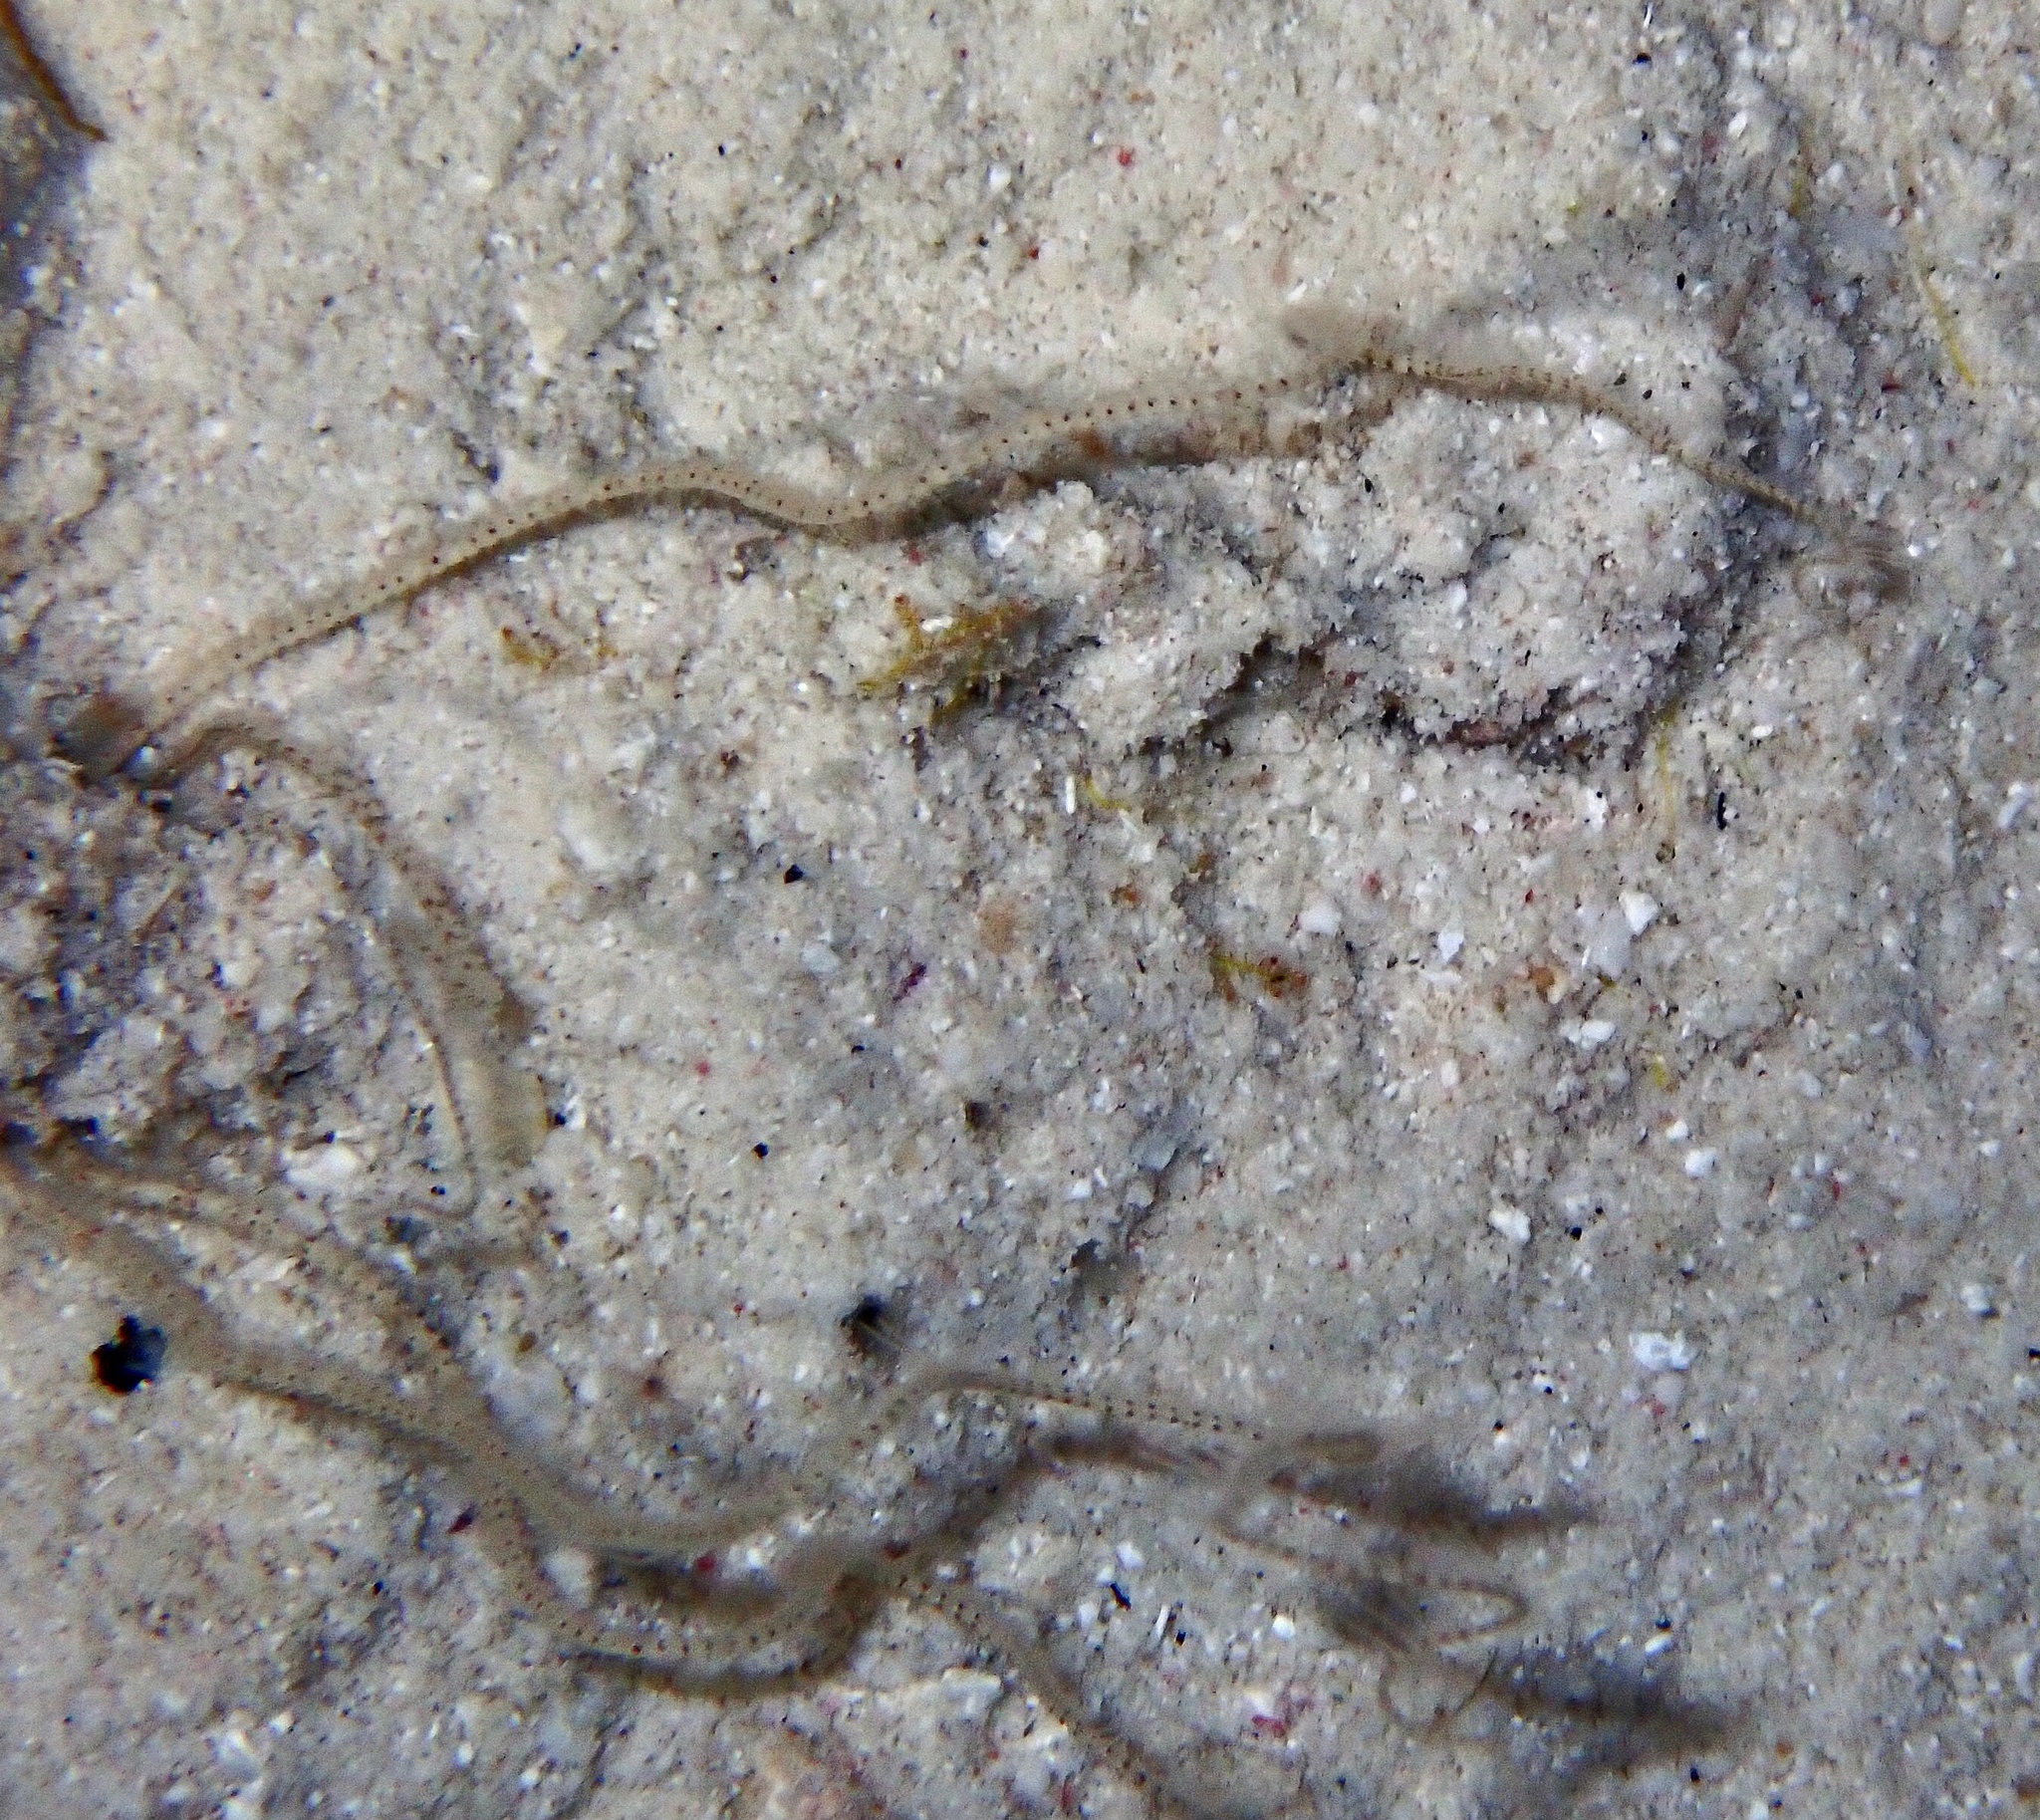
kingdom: Animalia
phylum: Echinodermata
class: Ophiuroidea
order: Amphilepidida
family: Ophiopsilidae
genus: Ophiopsila
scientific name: Ophiopsila riisei
